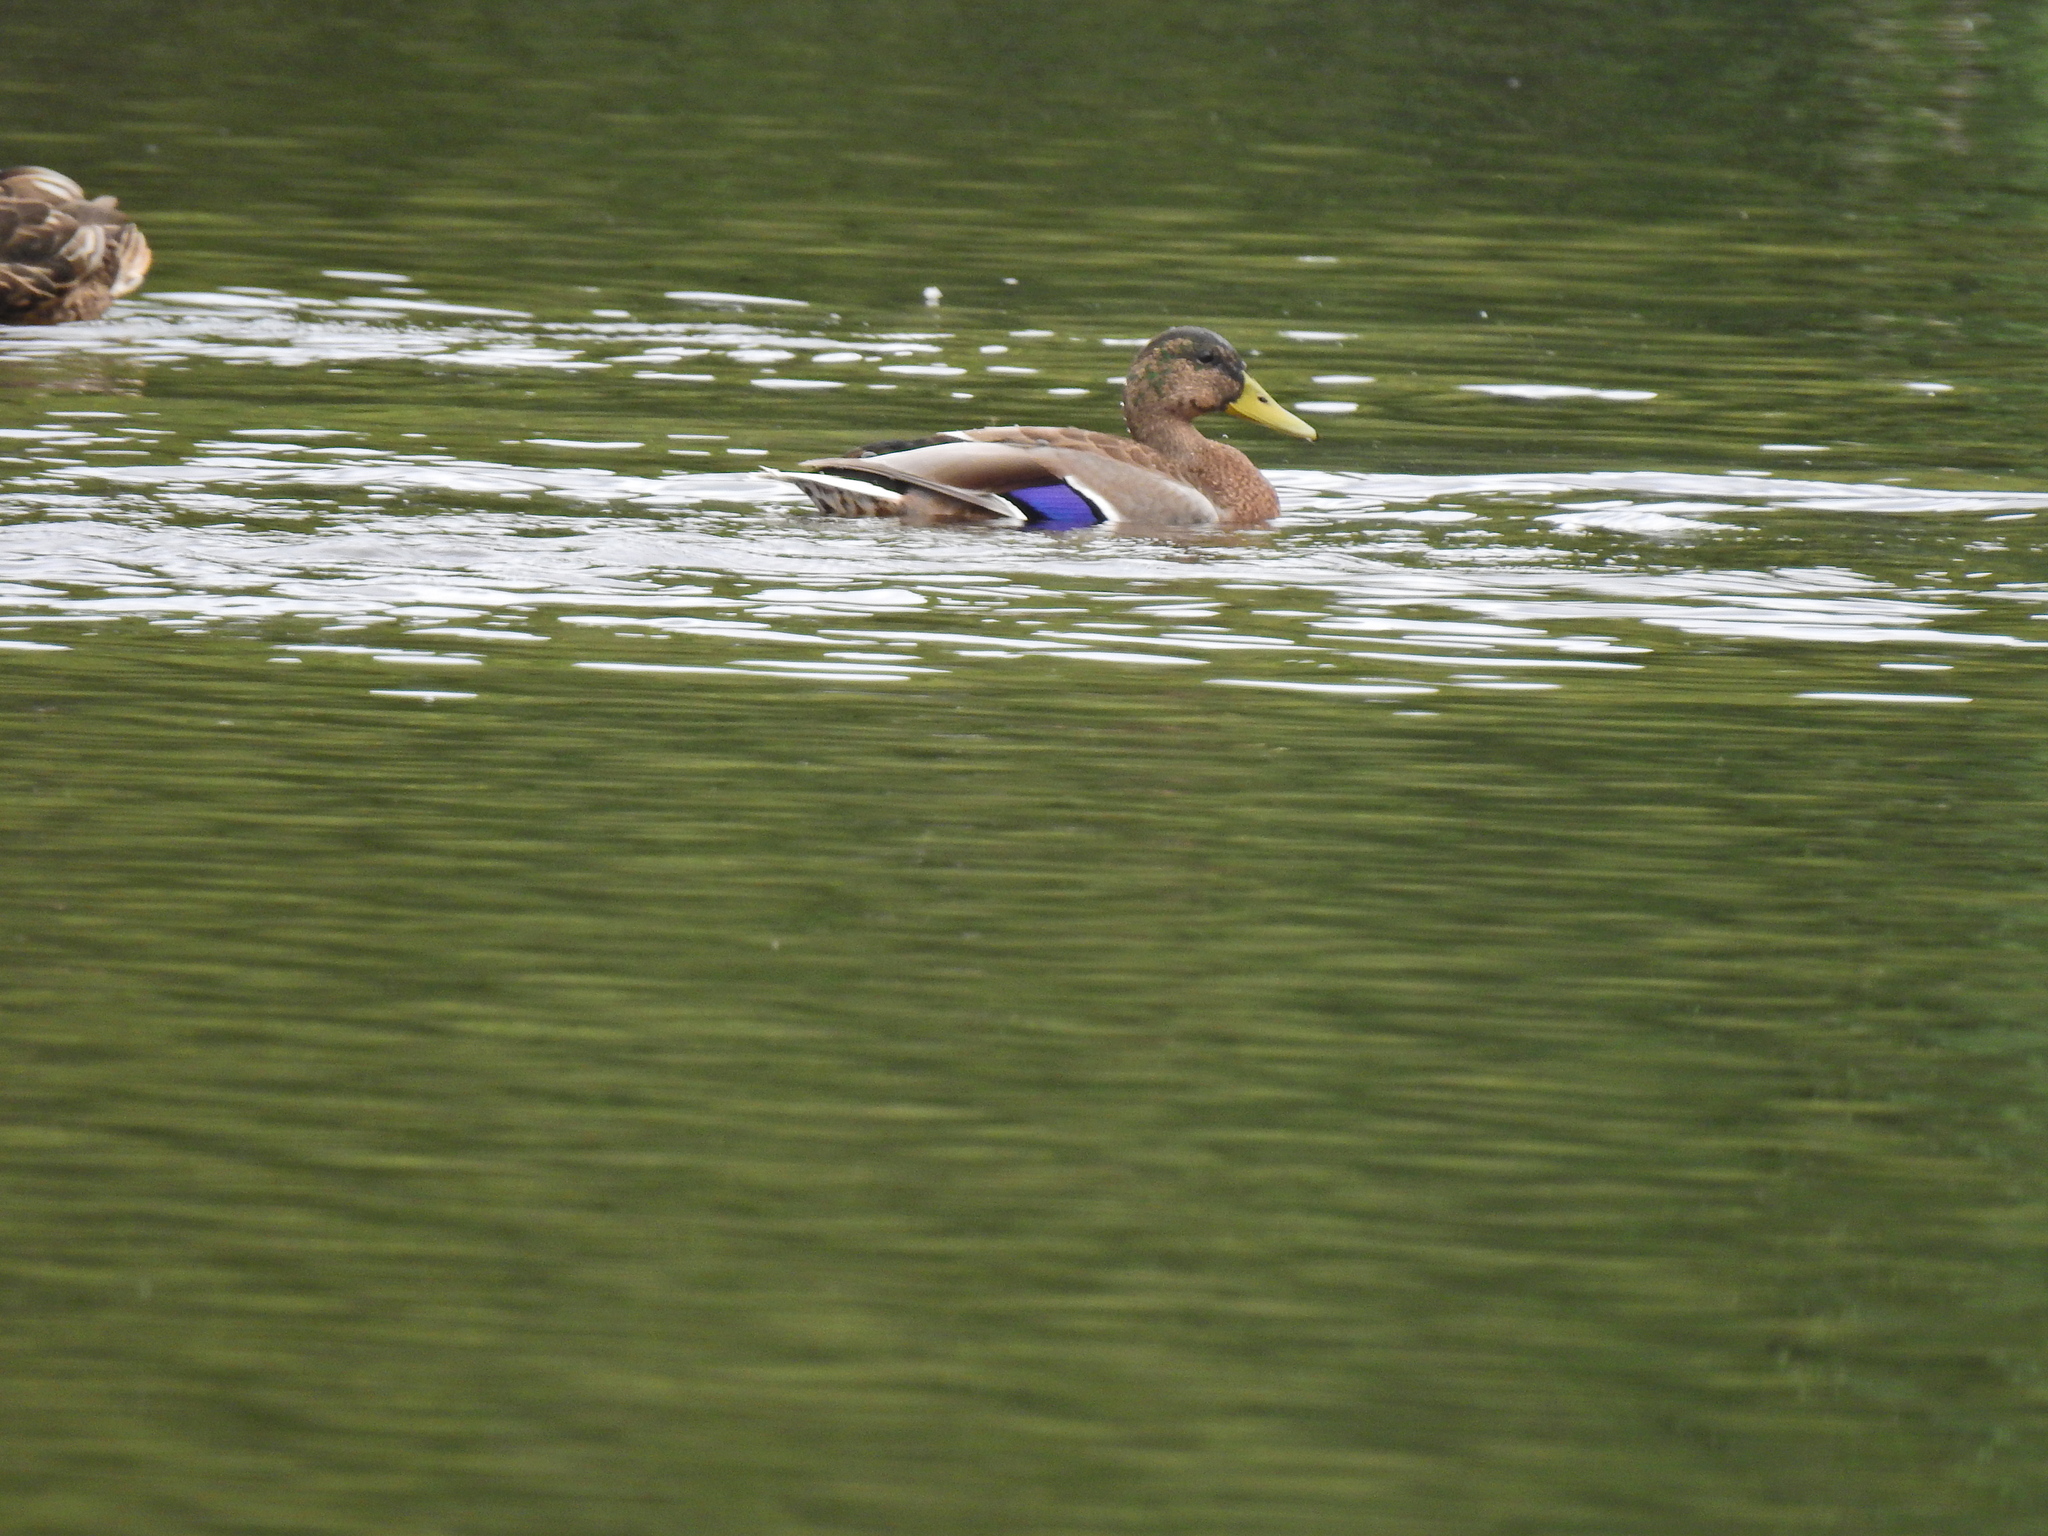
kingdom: Animalia
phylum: Chordata
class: Aves
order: Anseriformes
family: Anatidae
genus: Anas
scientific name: Anas platyrhynchos
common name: Mallard
